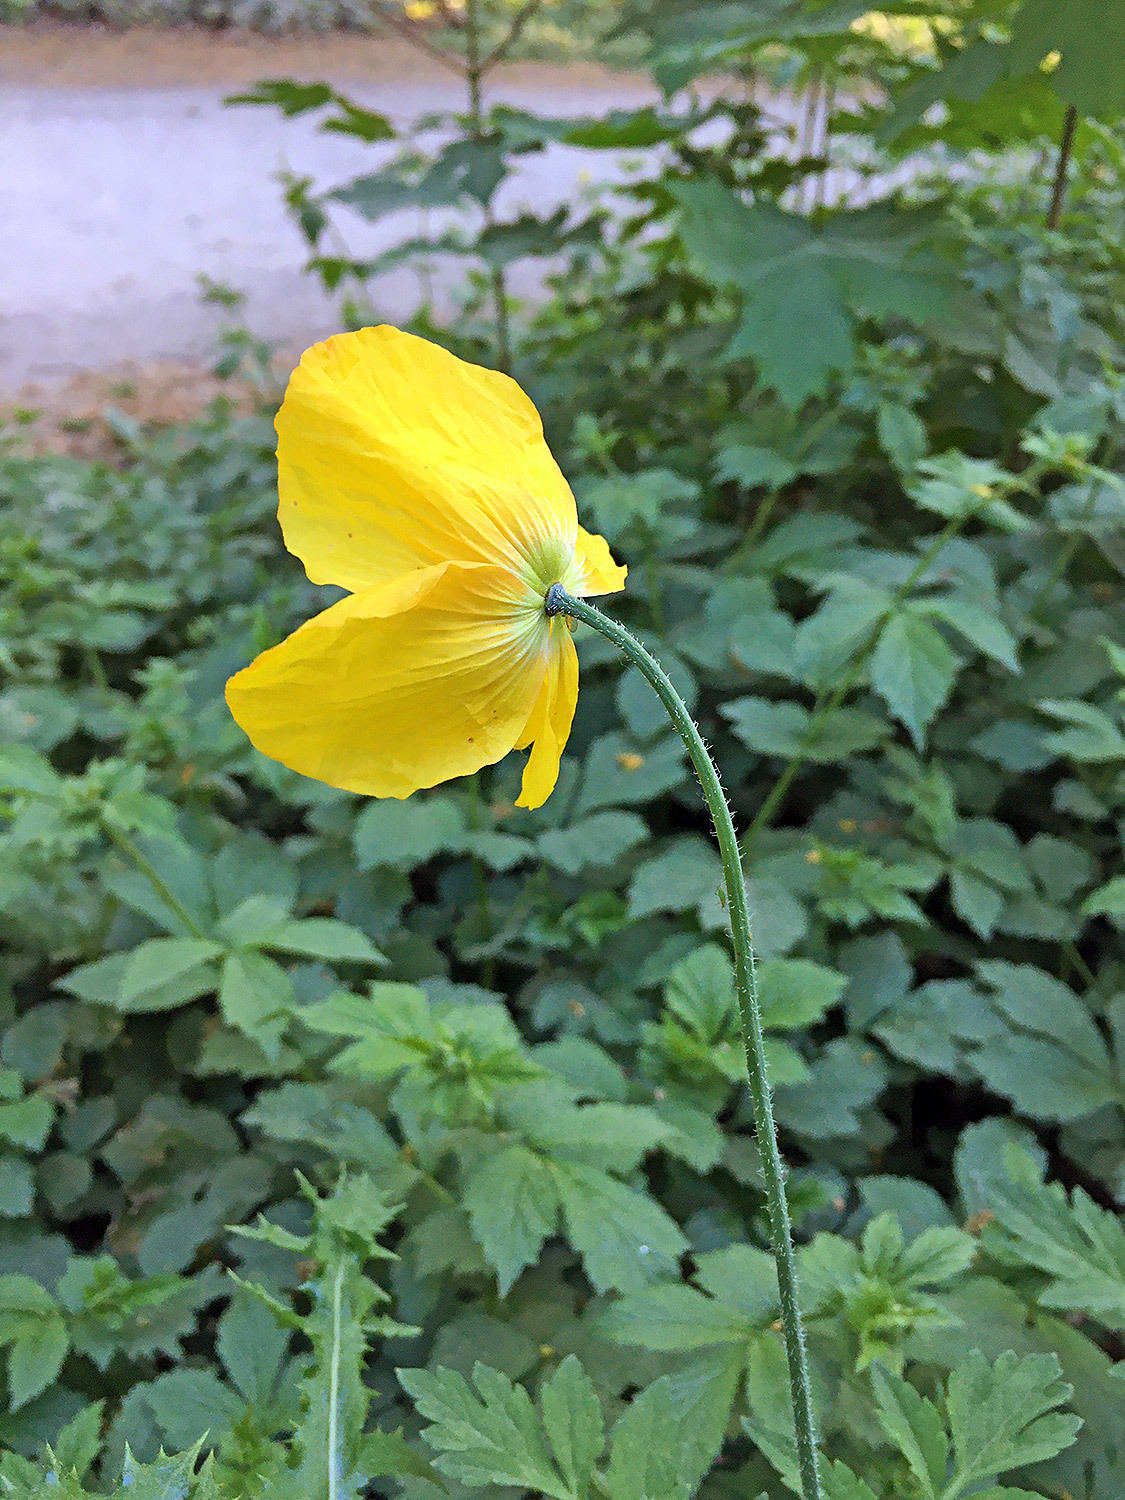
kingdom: Plantae
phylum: Tracheophyta
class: Magnoliopsida
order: Ranunculales
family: Papaveraceae
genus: Papaver
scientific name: Papaver cambricum
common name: Poppy
